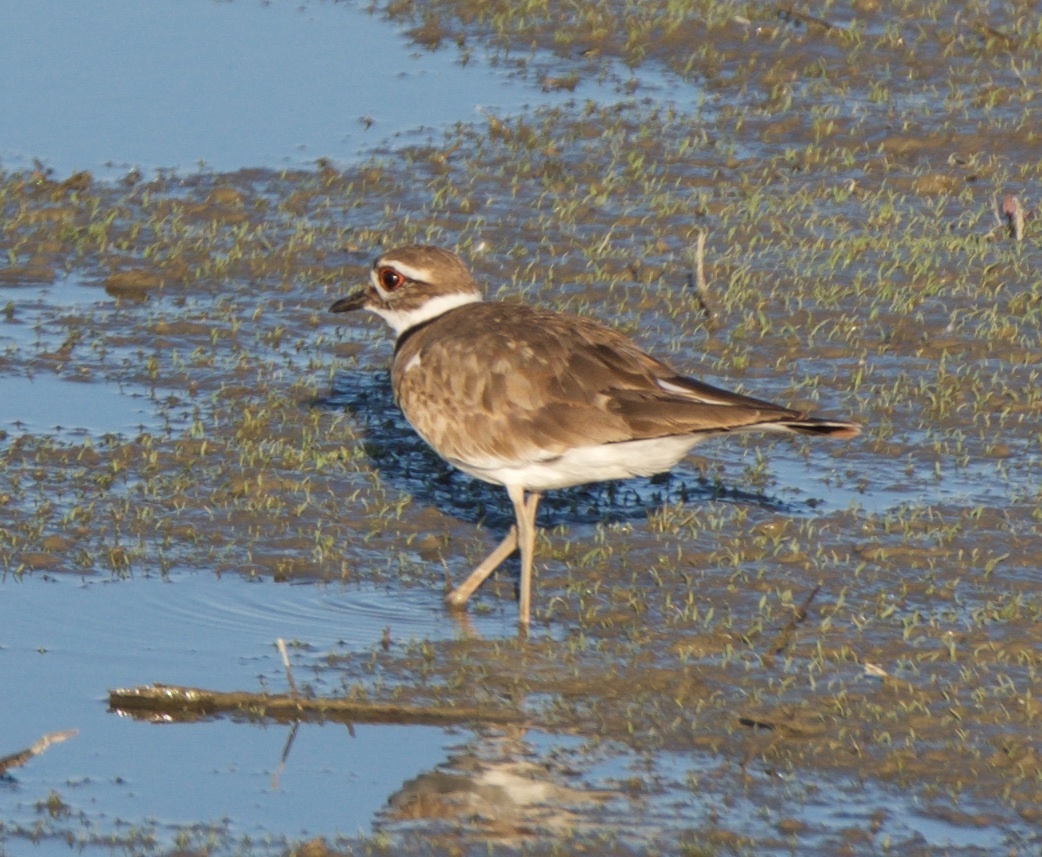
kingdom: Animalia
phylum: Chordata
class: Aves
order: Charadriiformes
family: Charadriidae
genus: Charadrius
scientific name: Charadrius vociferus
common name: Killdeer
